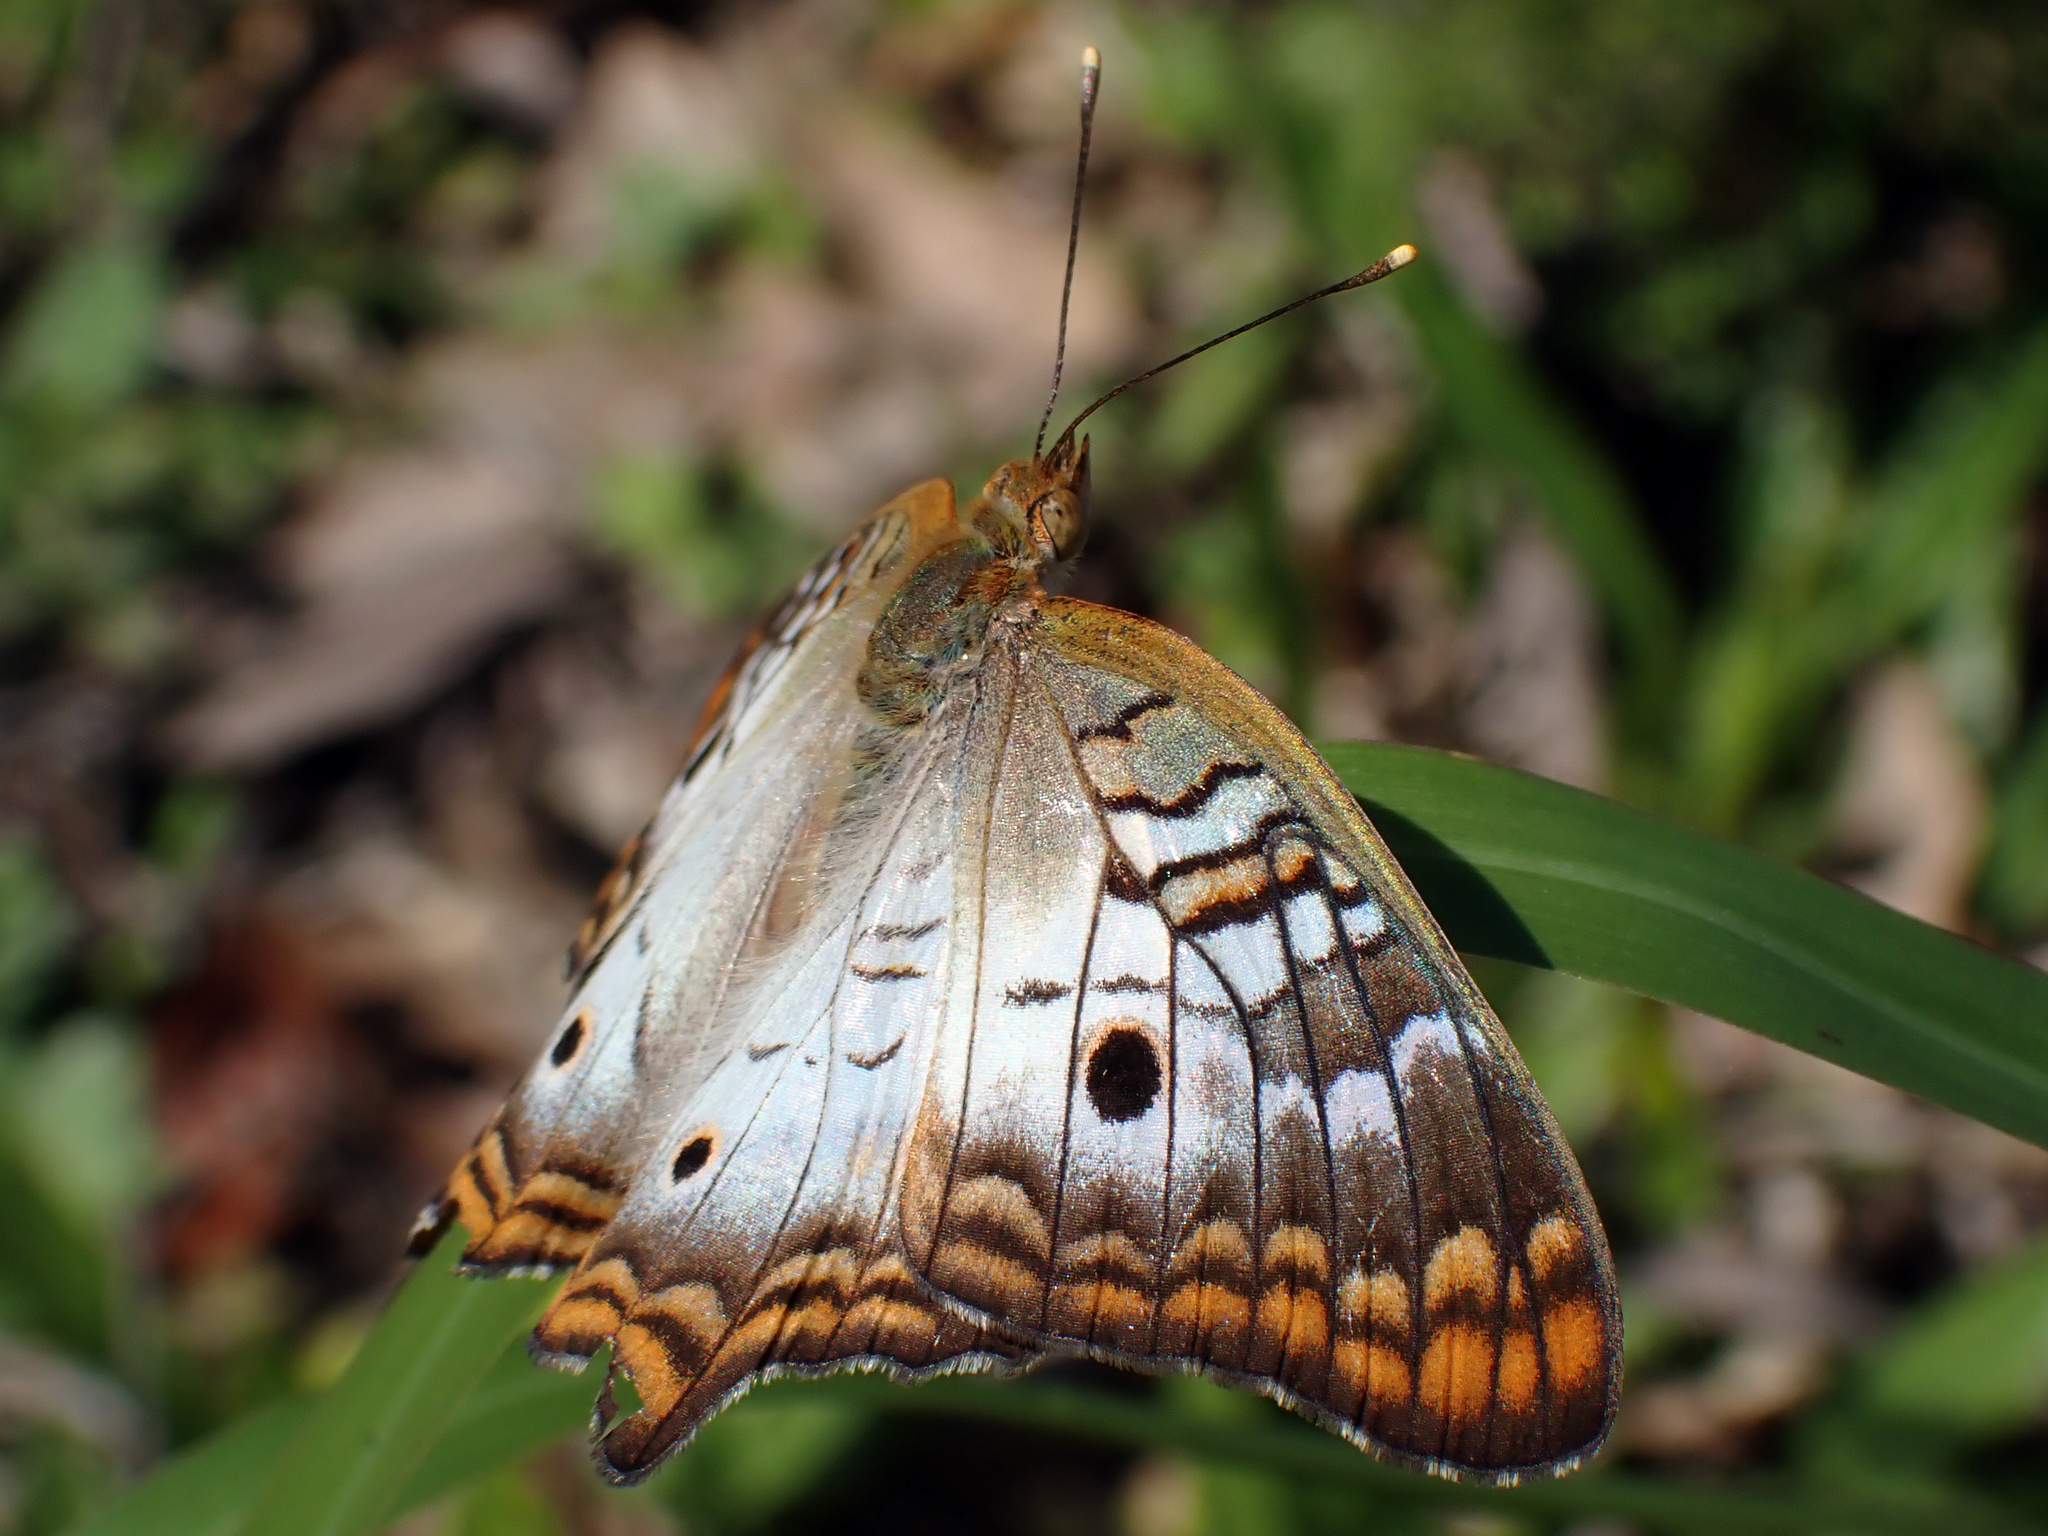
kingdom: Animalia
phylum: Arthropoda
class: Insecta
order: Lepidoptera
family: Nymphalidae
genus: Anartia
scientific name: Anartia jatrophae
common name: White peacock
